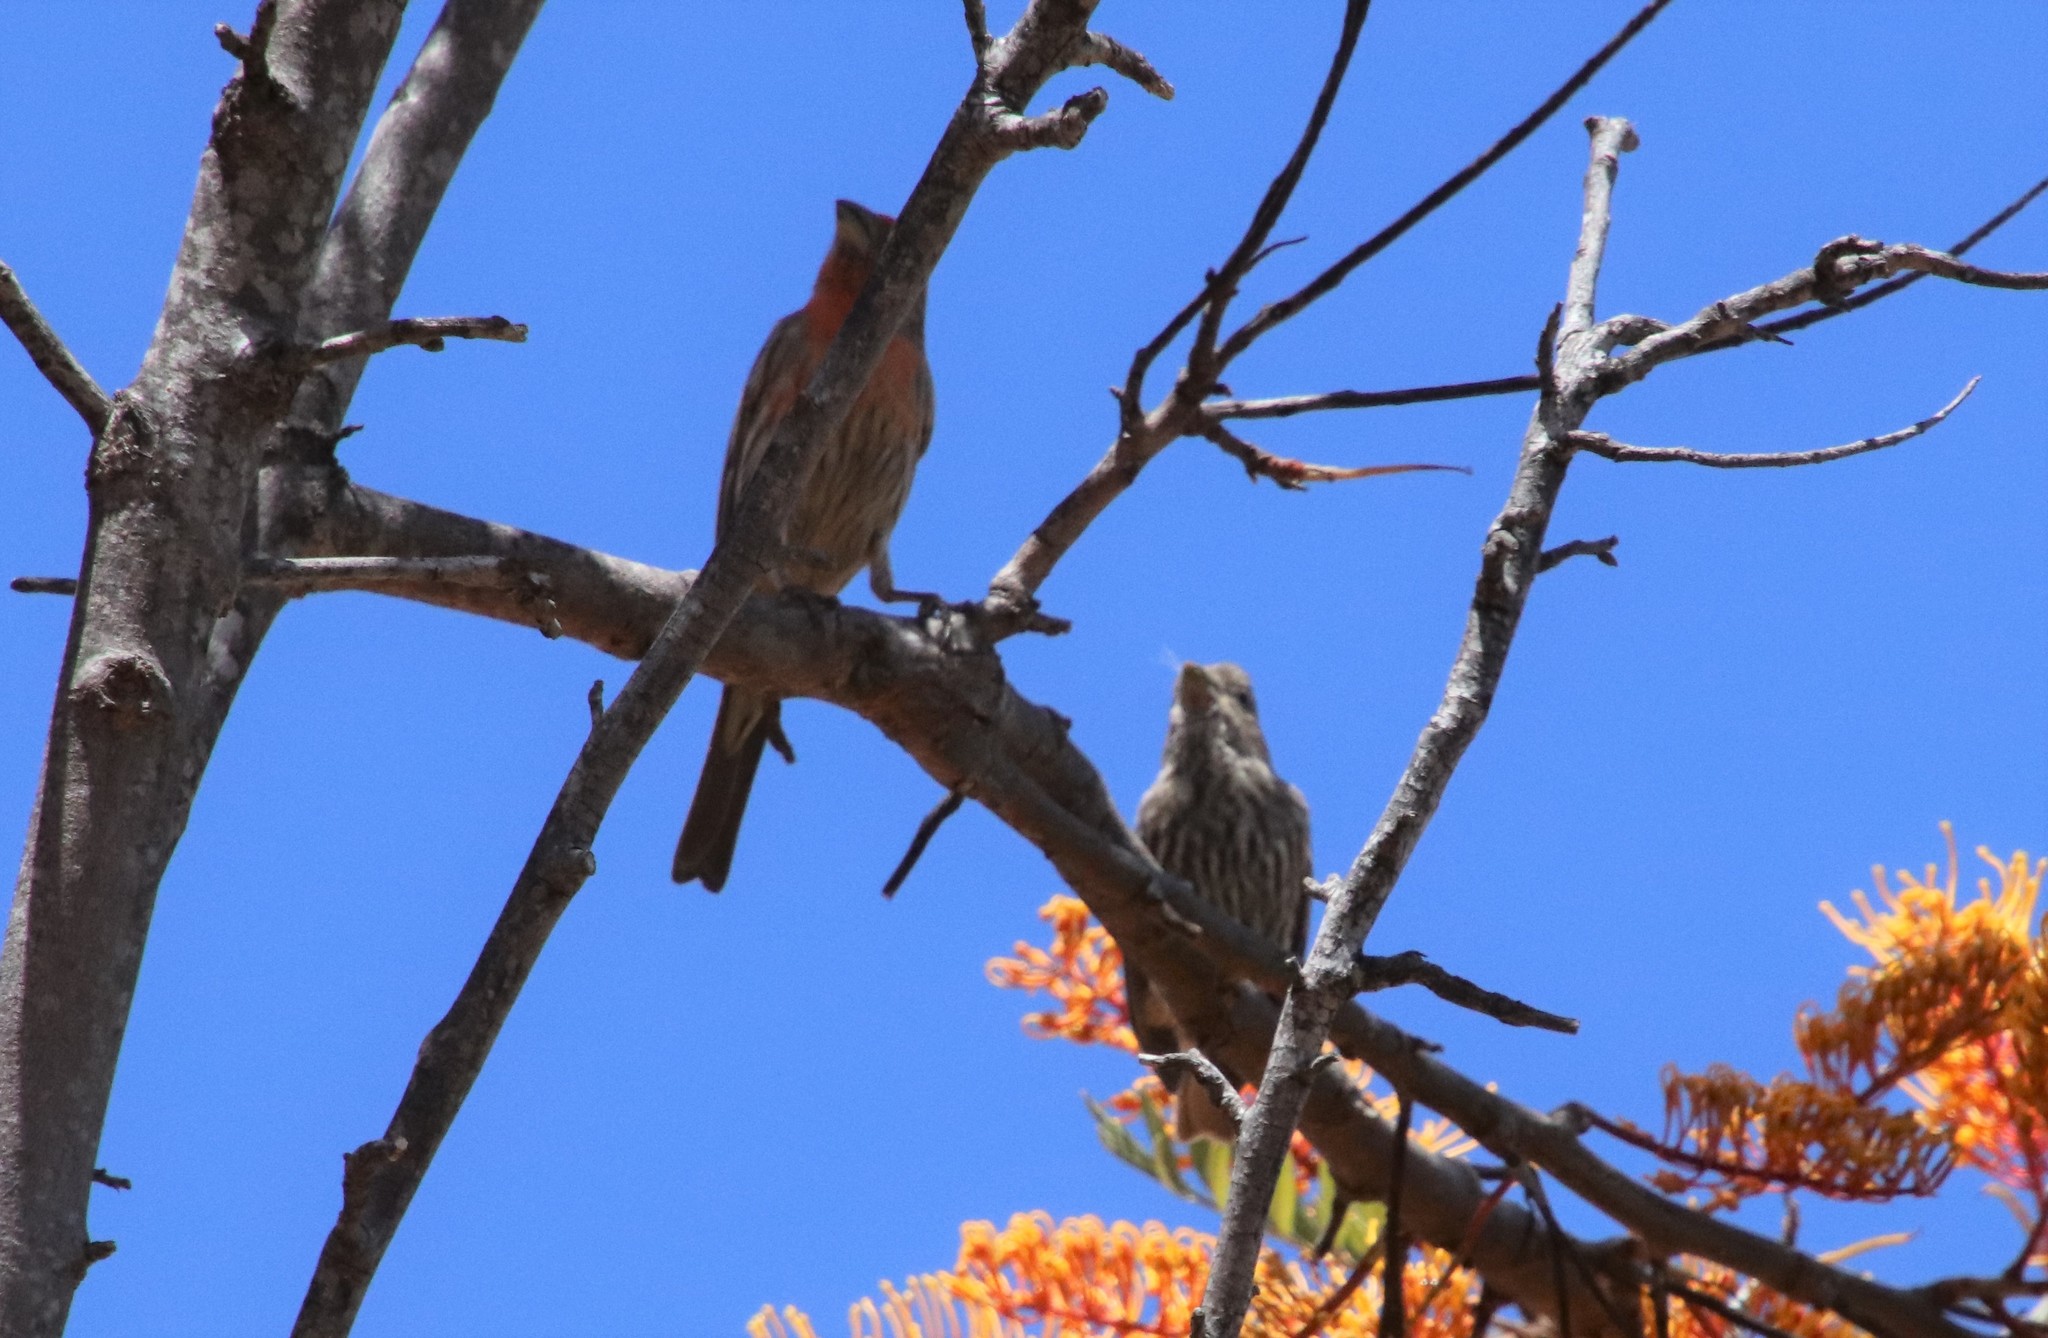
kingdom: Animalia
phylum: Chordata
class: Aves
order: Passeriformes
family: Fringillidae
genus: Haemorhous
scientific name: Haemorhous mexicanus
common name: House finch
